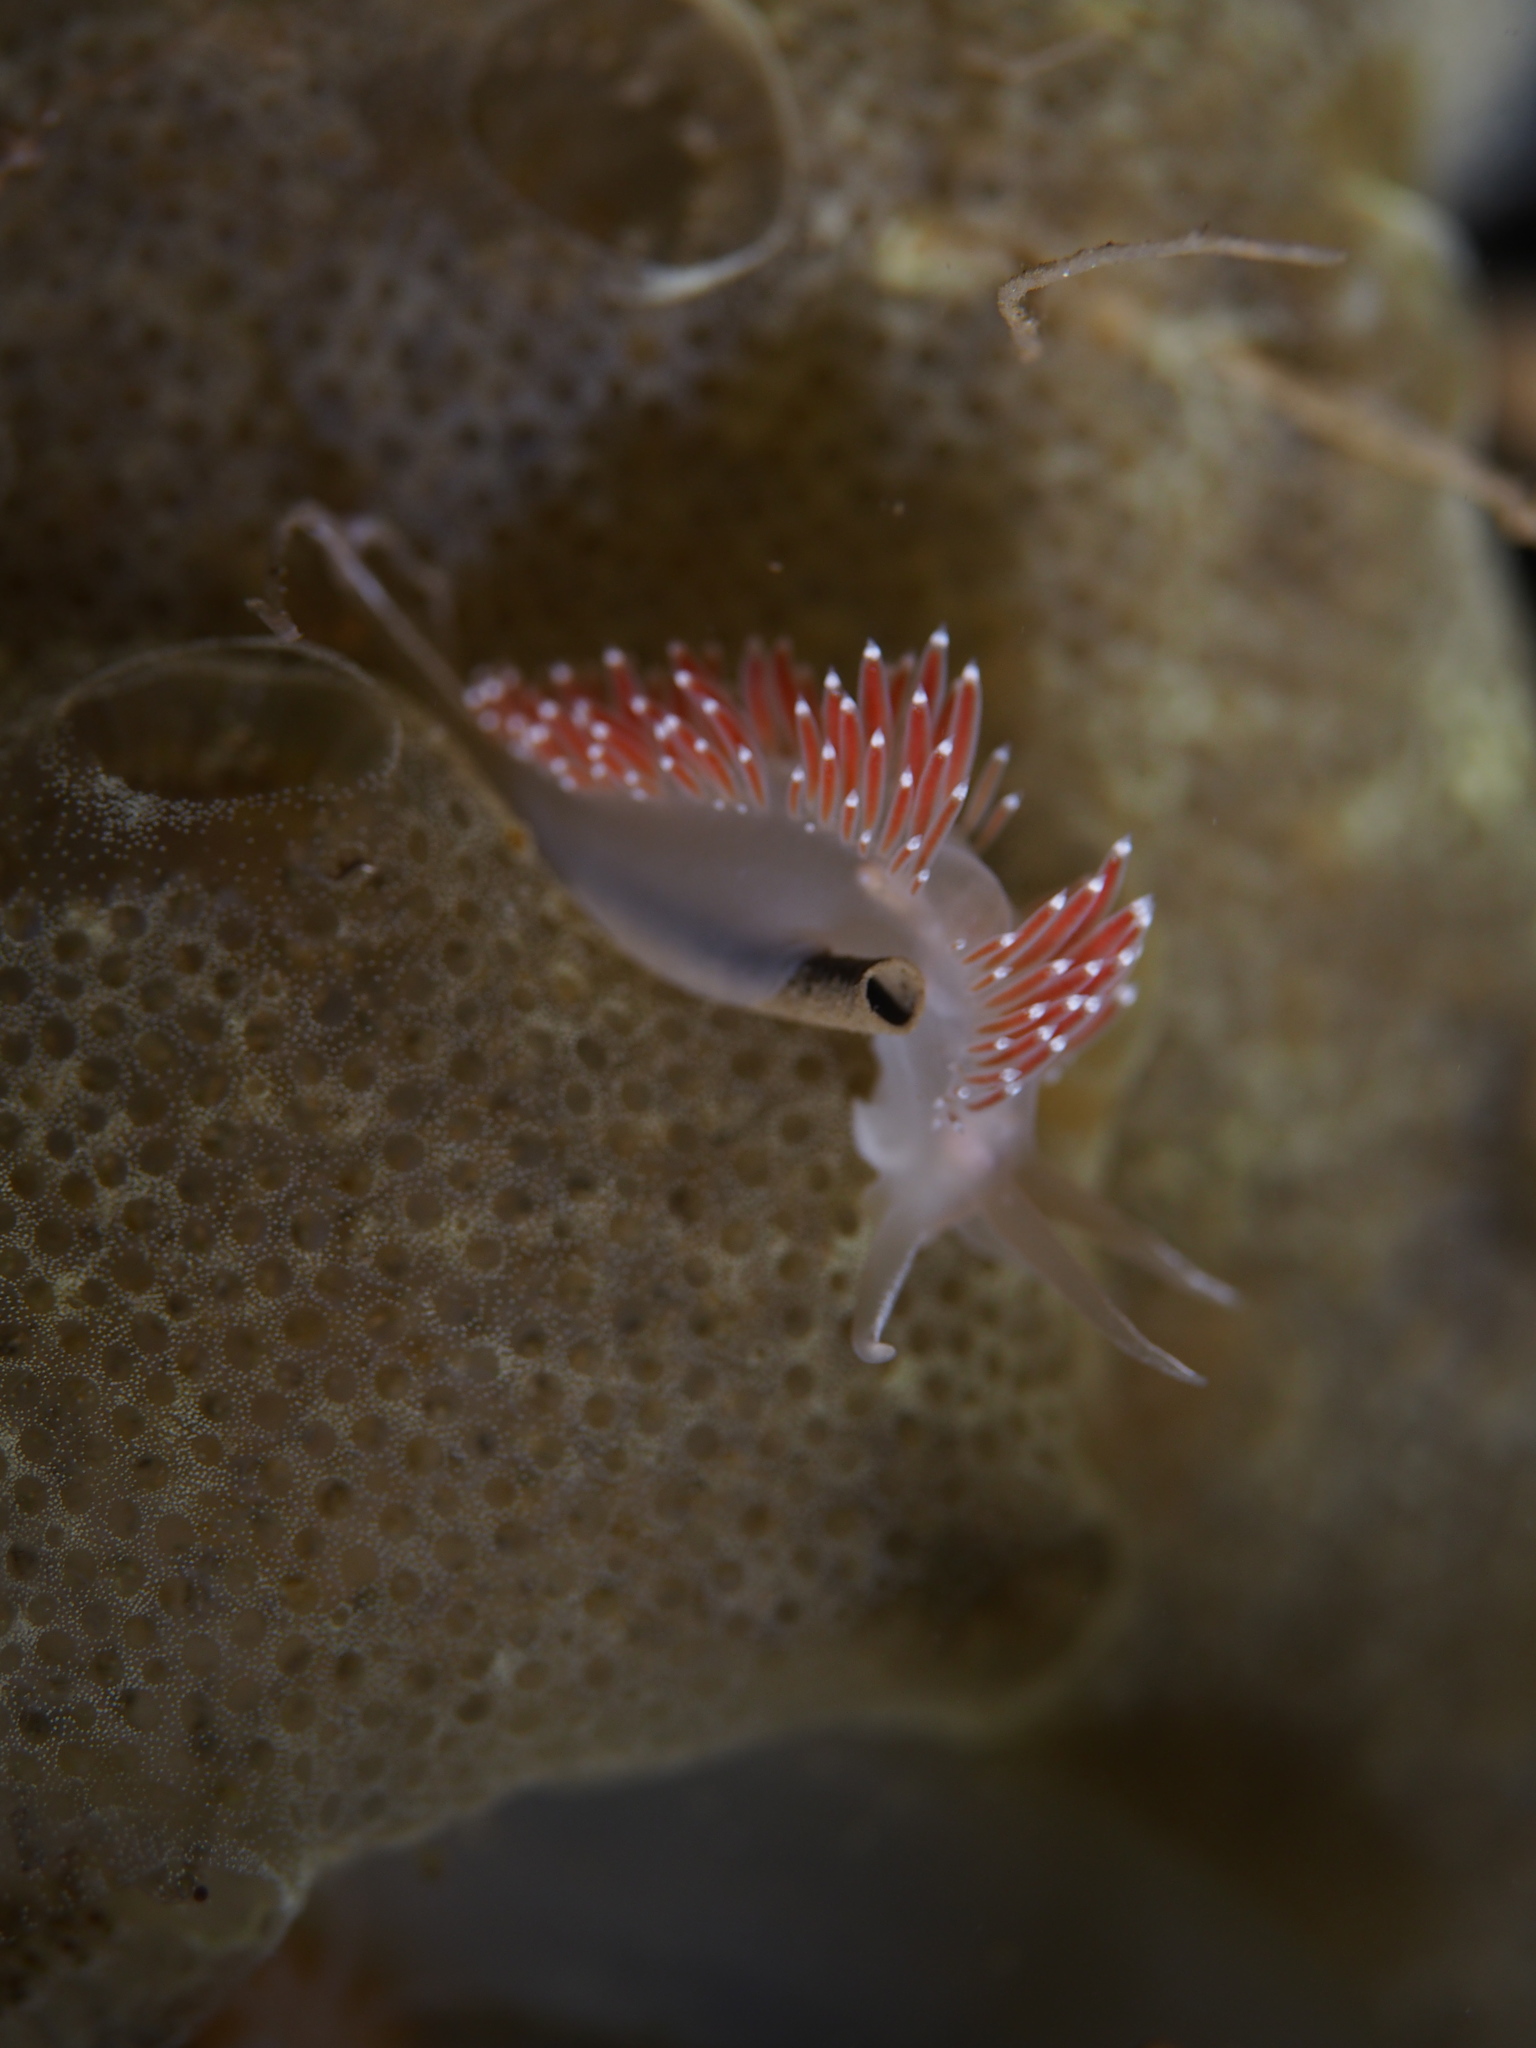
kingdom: Animalia
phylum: Mollusca
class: Gastropoda
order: Nudibranchia
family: Coryphellidae
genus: Coryphella
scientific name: Coryphella verrucosa
